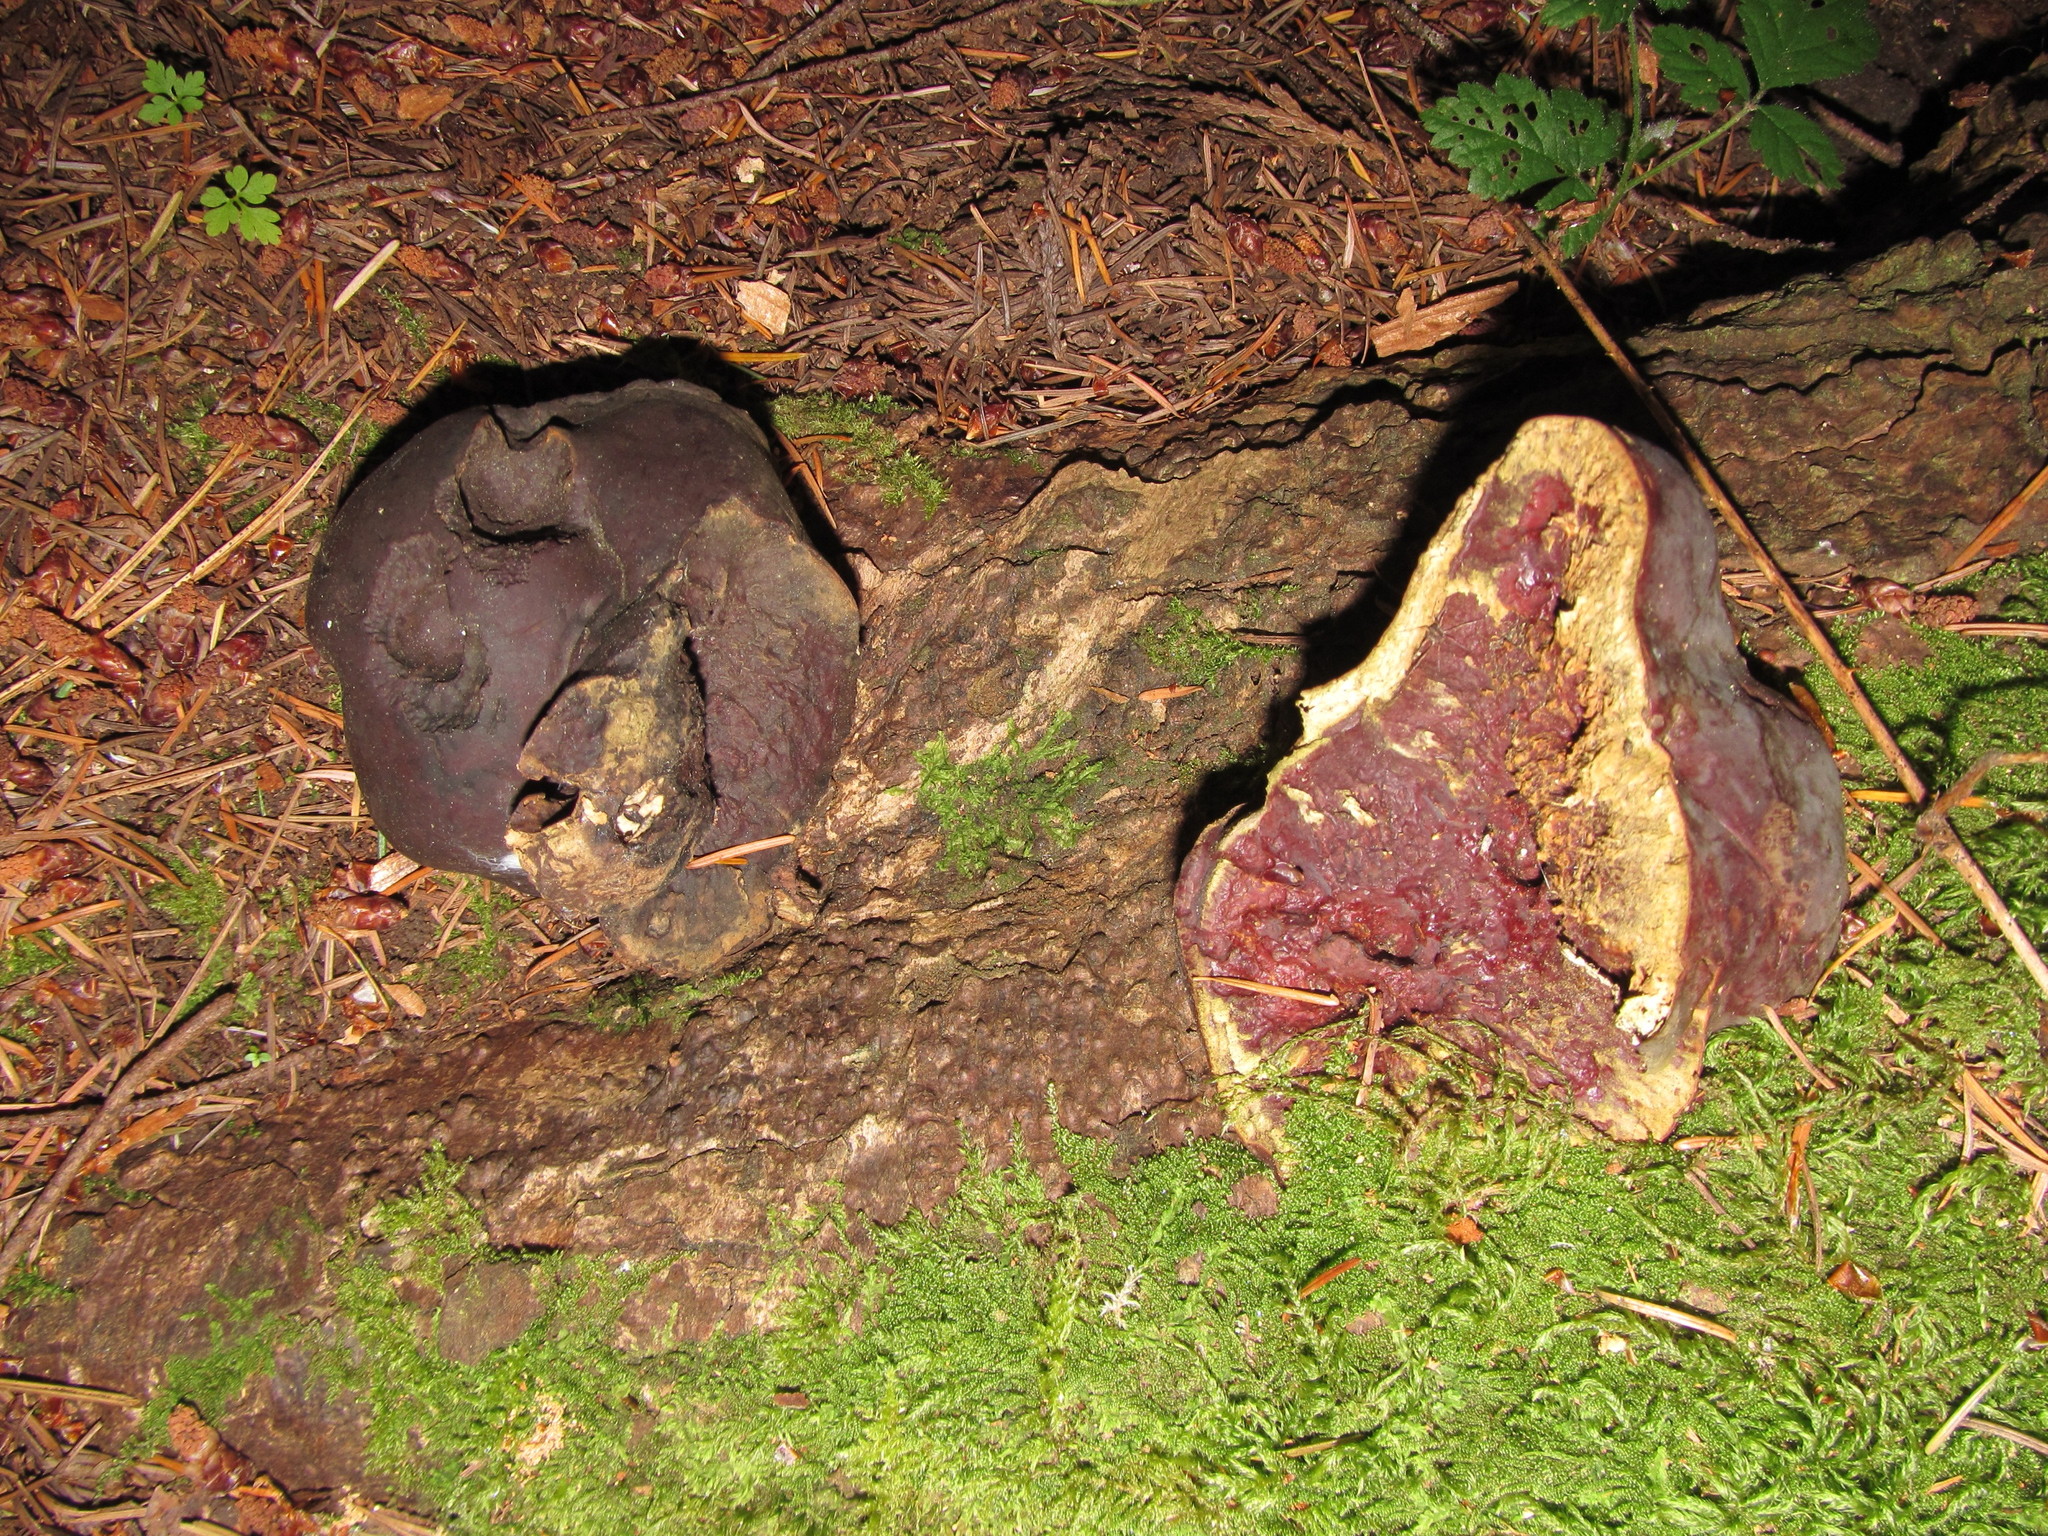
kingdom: Fungi
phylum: Basidiomycota
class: Agaricomycetes
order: Polyporales
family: Polyporaceae
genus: Ganoderma
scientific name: Ganoderma oregonense
